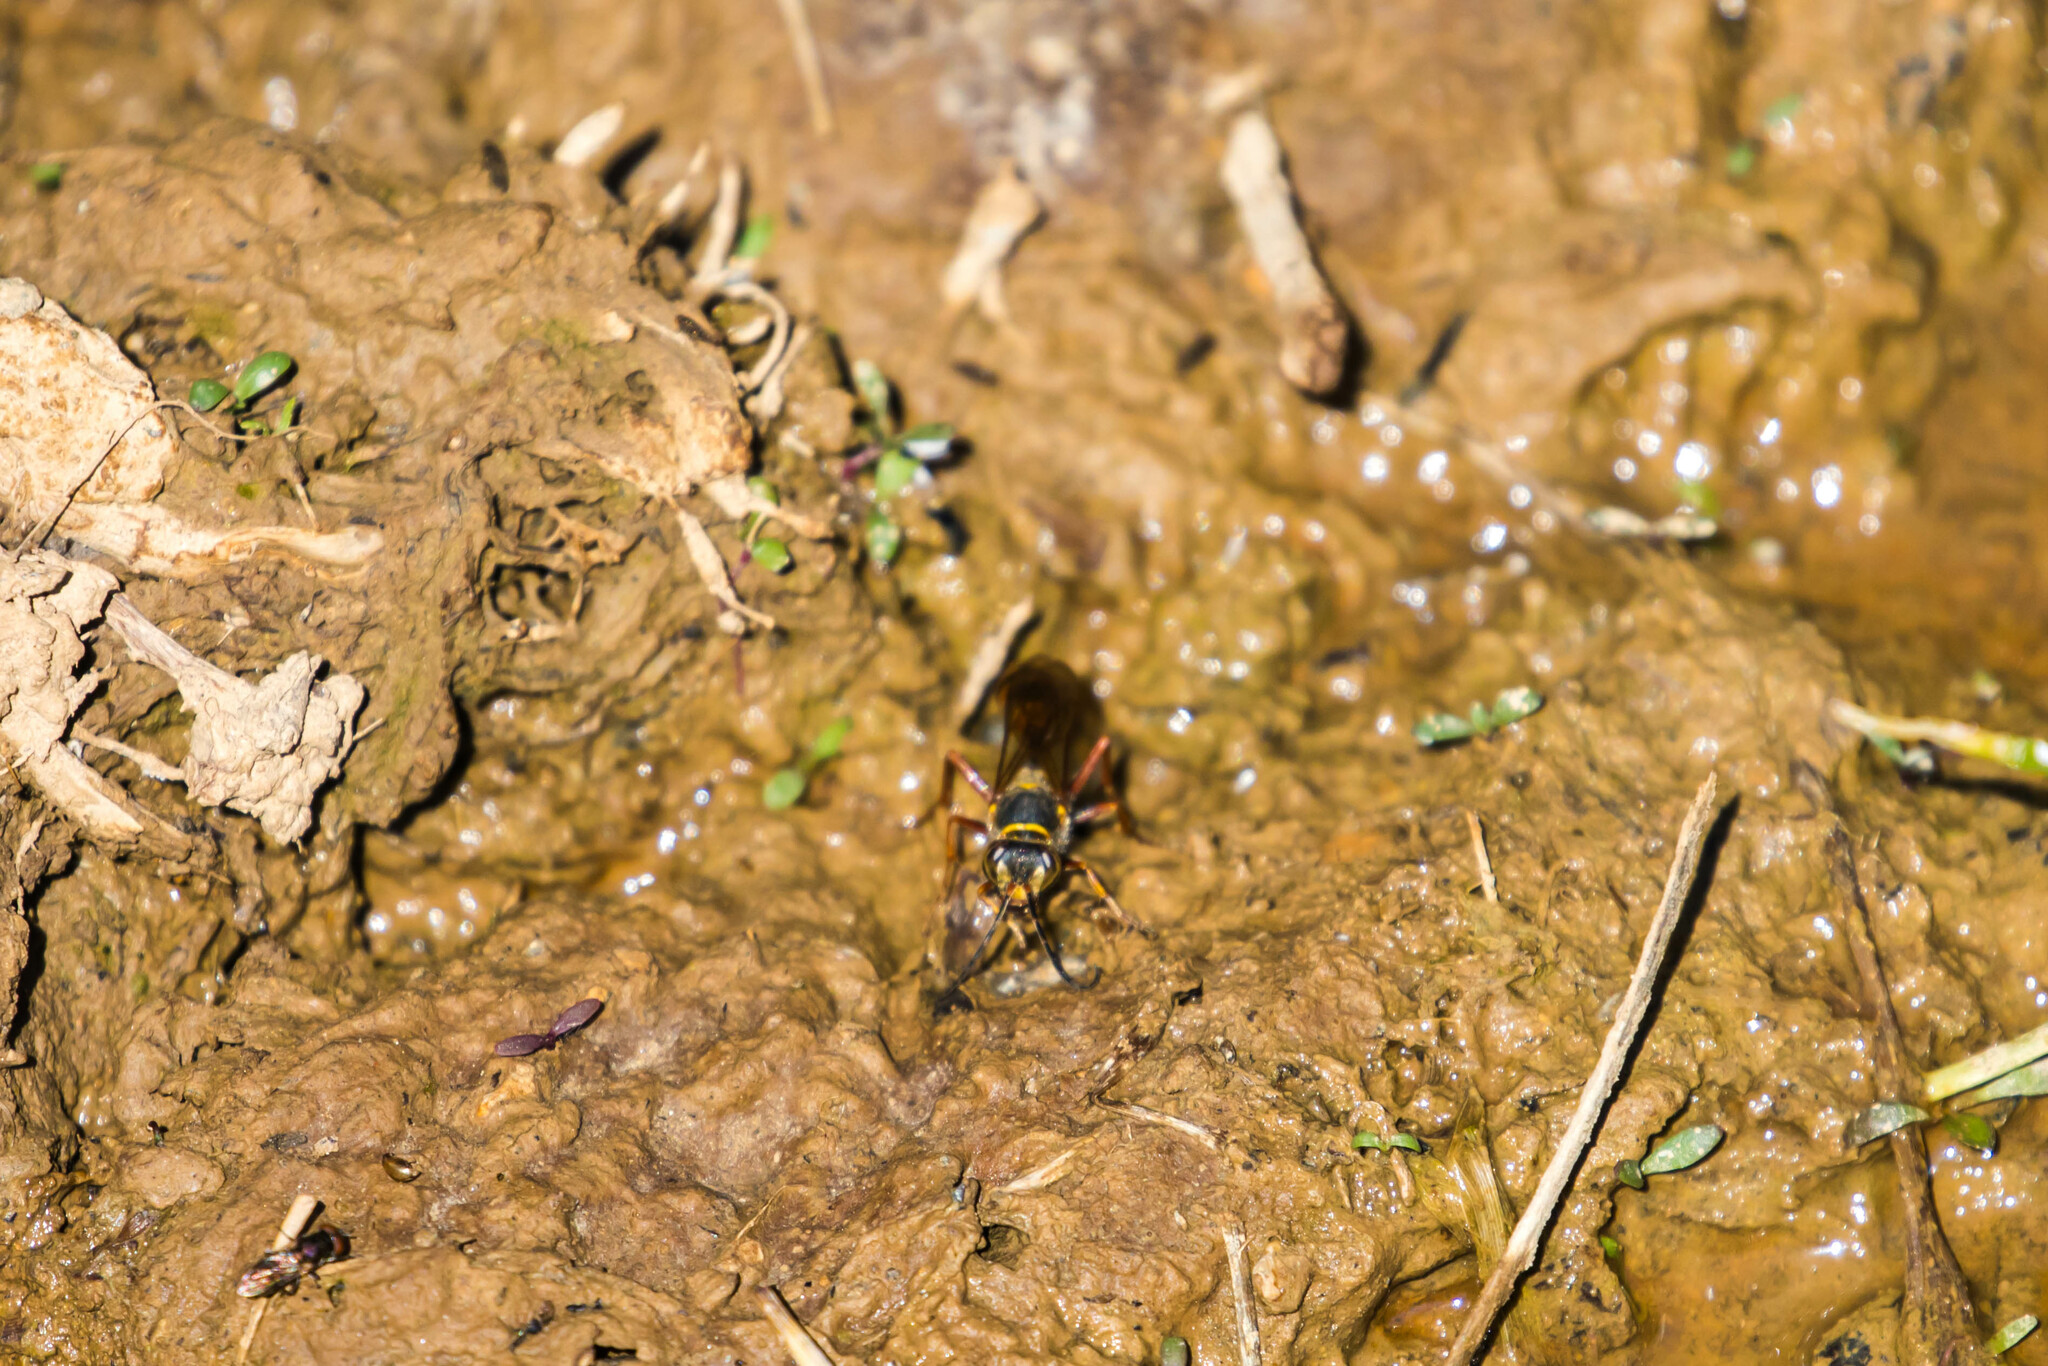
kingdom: Animalia
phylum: Arthropoda
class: Insecta
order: Hymenoptera
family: Sphecidae
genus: Sceliphron
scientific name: Sceliphron curvatum
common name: Pèlopèe
